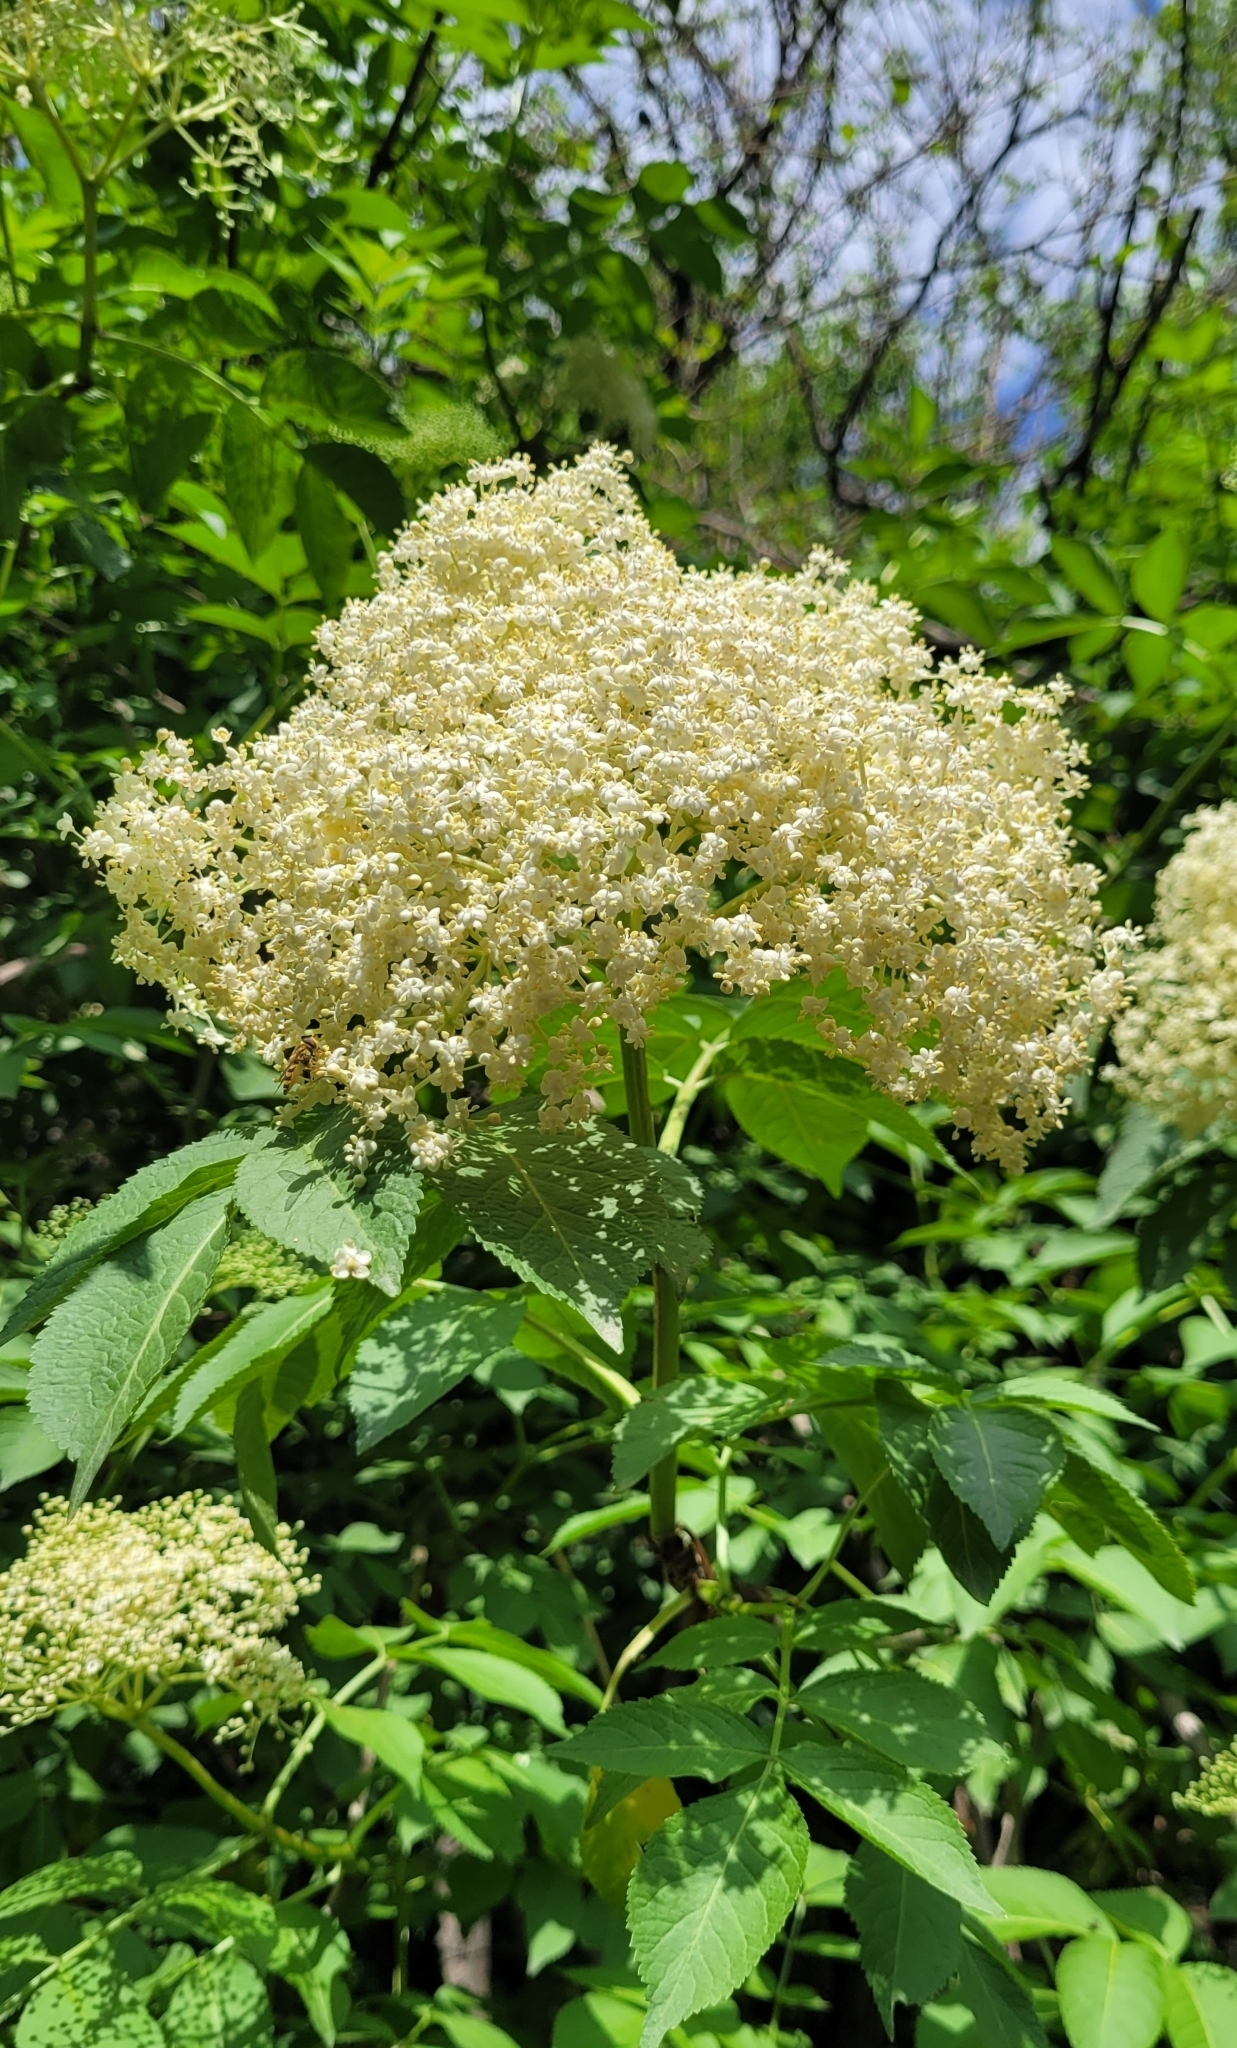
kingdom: Plantae
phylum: Tracheophyta
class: Magnoliopsida
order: Dipsacales
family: Viburnaceae
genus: Sambucus
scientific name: Sambucus nigra
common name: Elder
